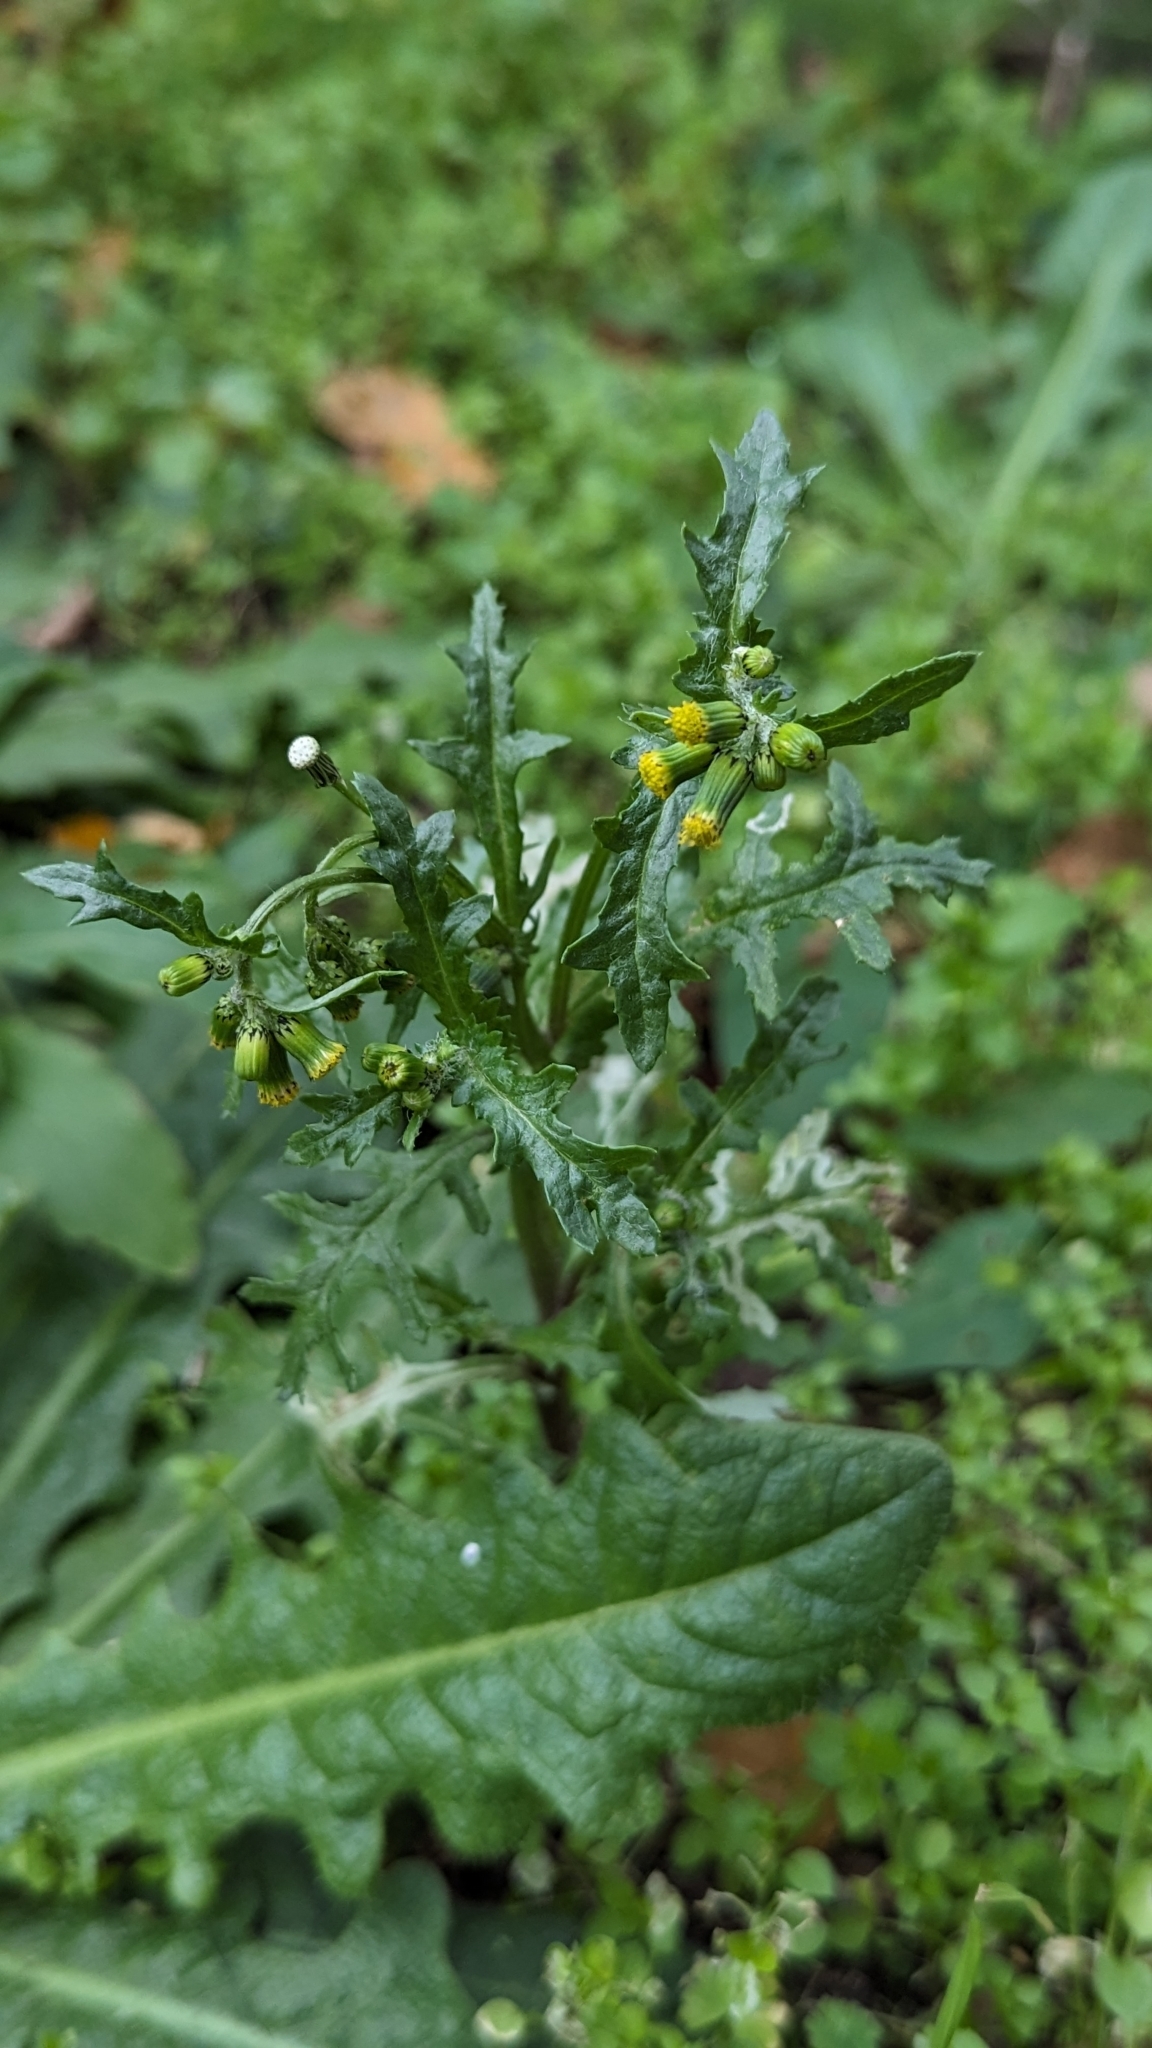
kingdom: Plantae
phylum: Tracheophyta
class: Magnoliopsida
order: Asterales
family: Asteraceae
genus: Senecio
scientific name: Senecio vulgaris
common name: Old-man-in-the-spring
